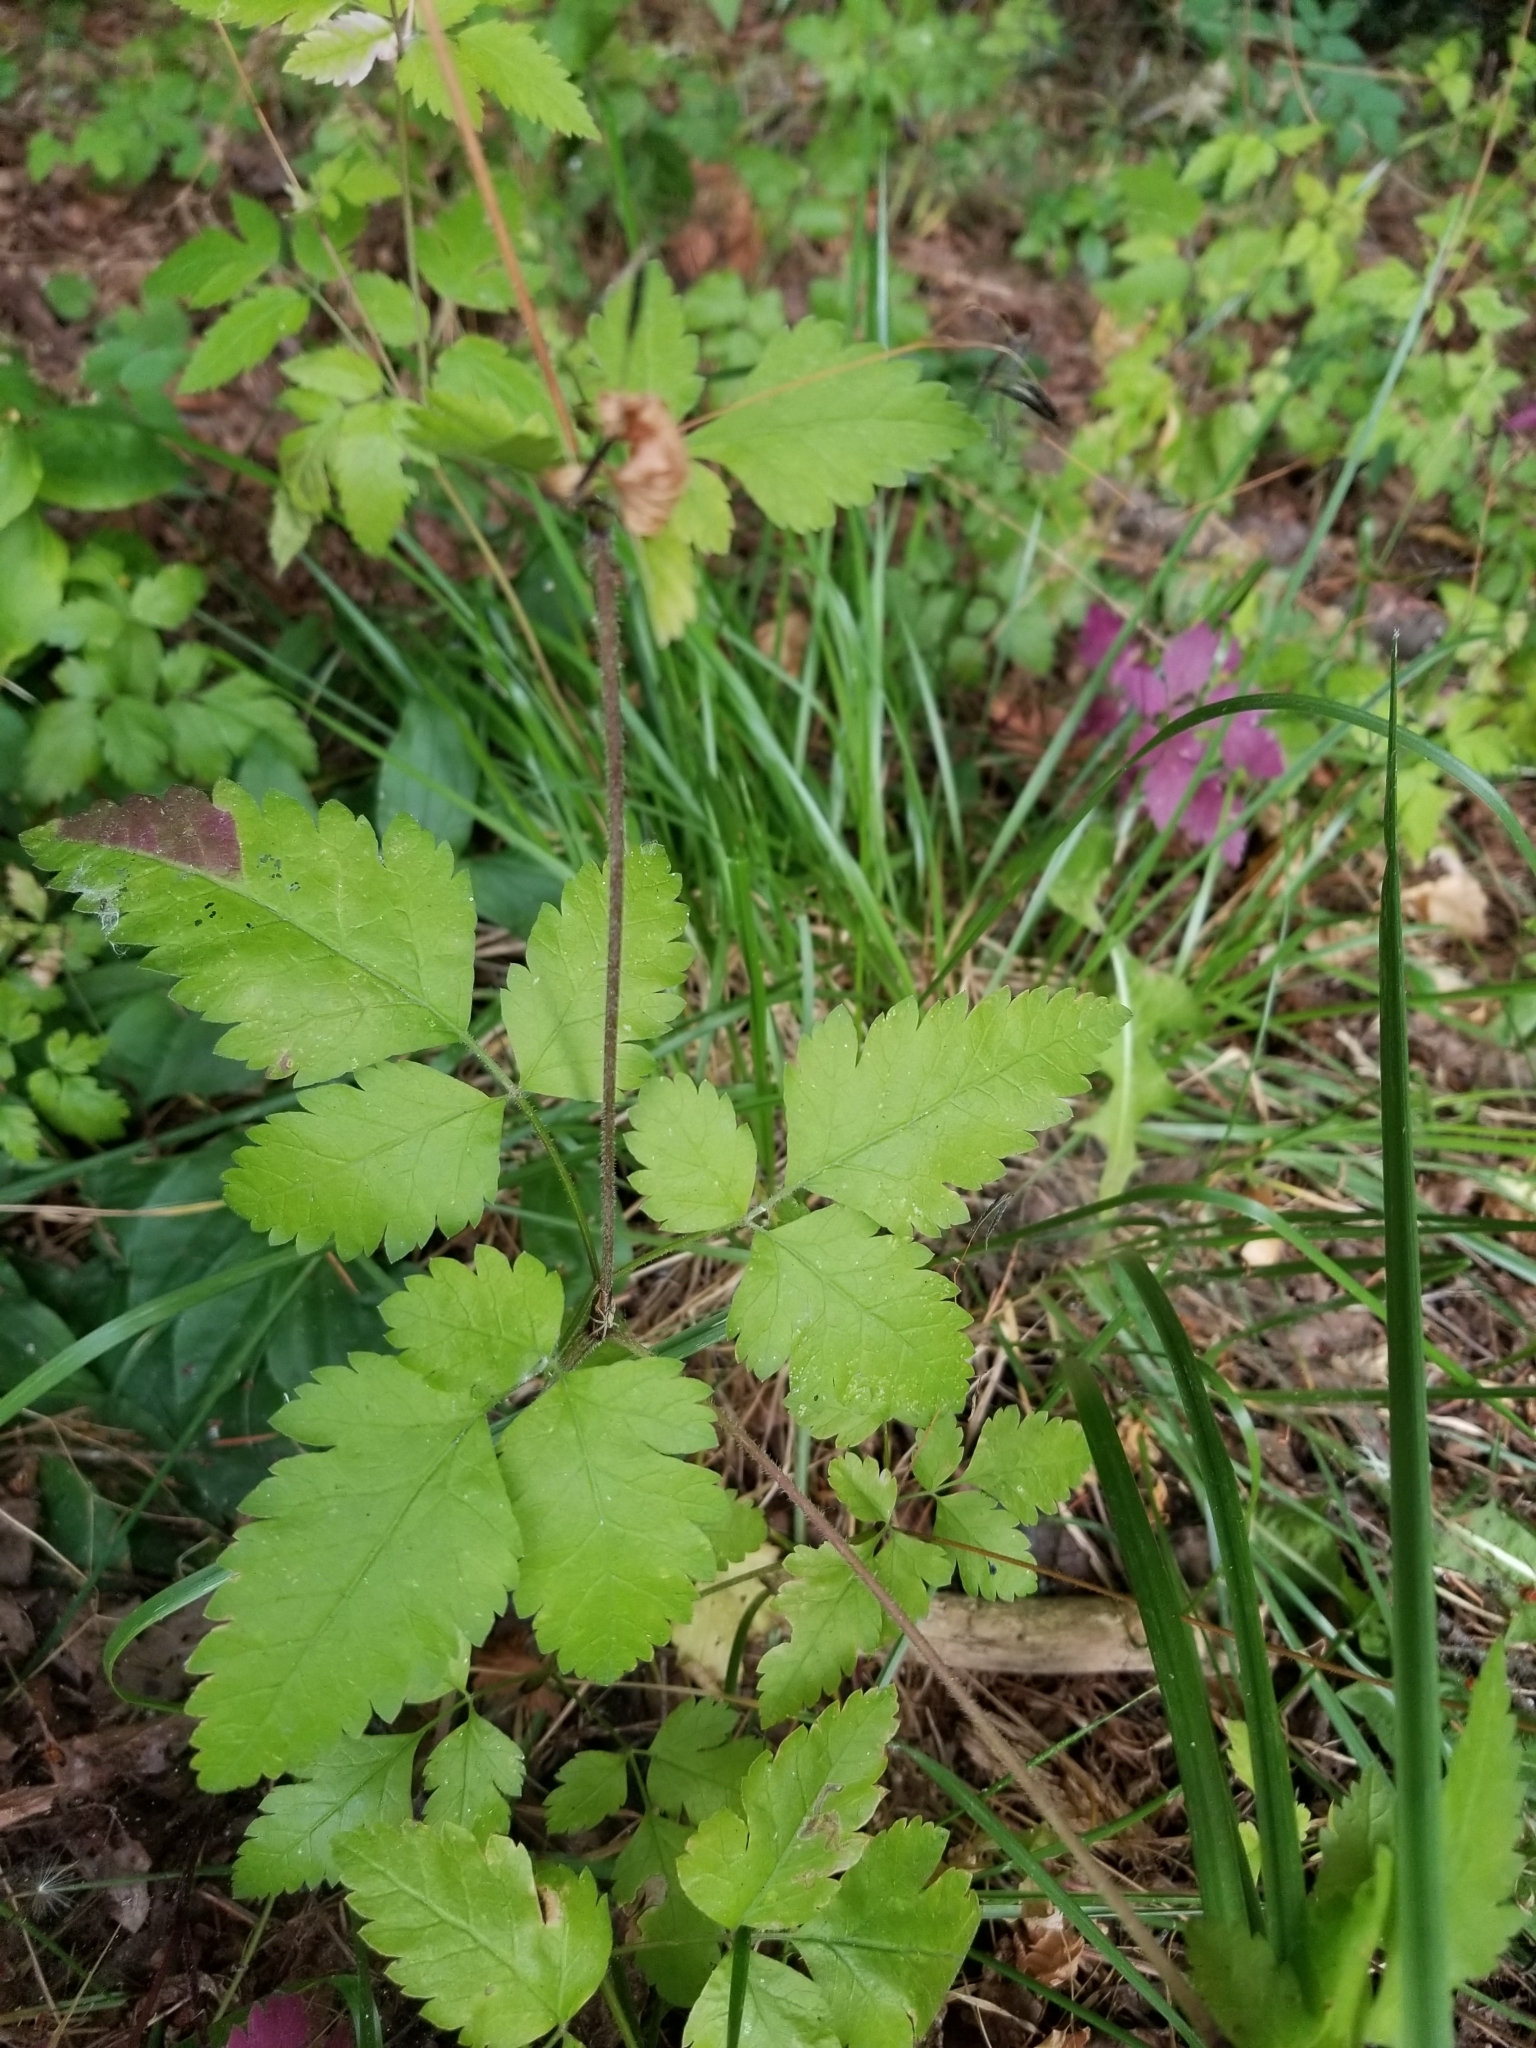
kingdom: Plantae
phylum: Tracheophyta
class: Magnoliopsida
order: Apiales
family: Apiaceae
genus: Osmorhiza
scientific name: Osmorhiza berteroi
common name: Mountain sweet cicely
